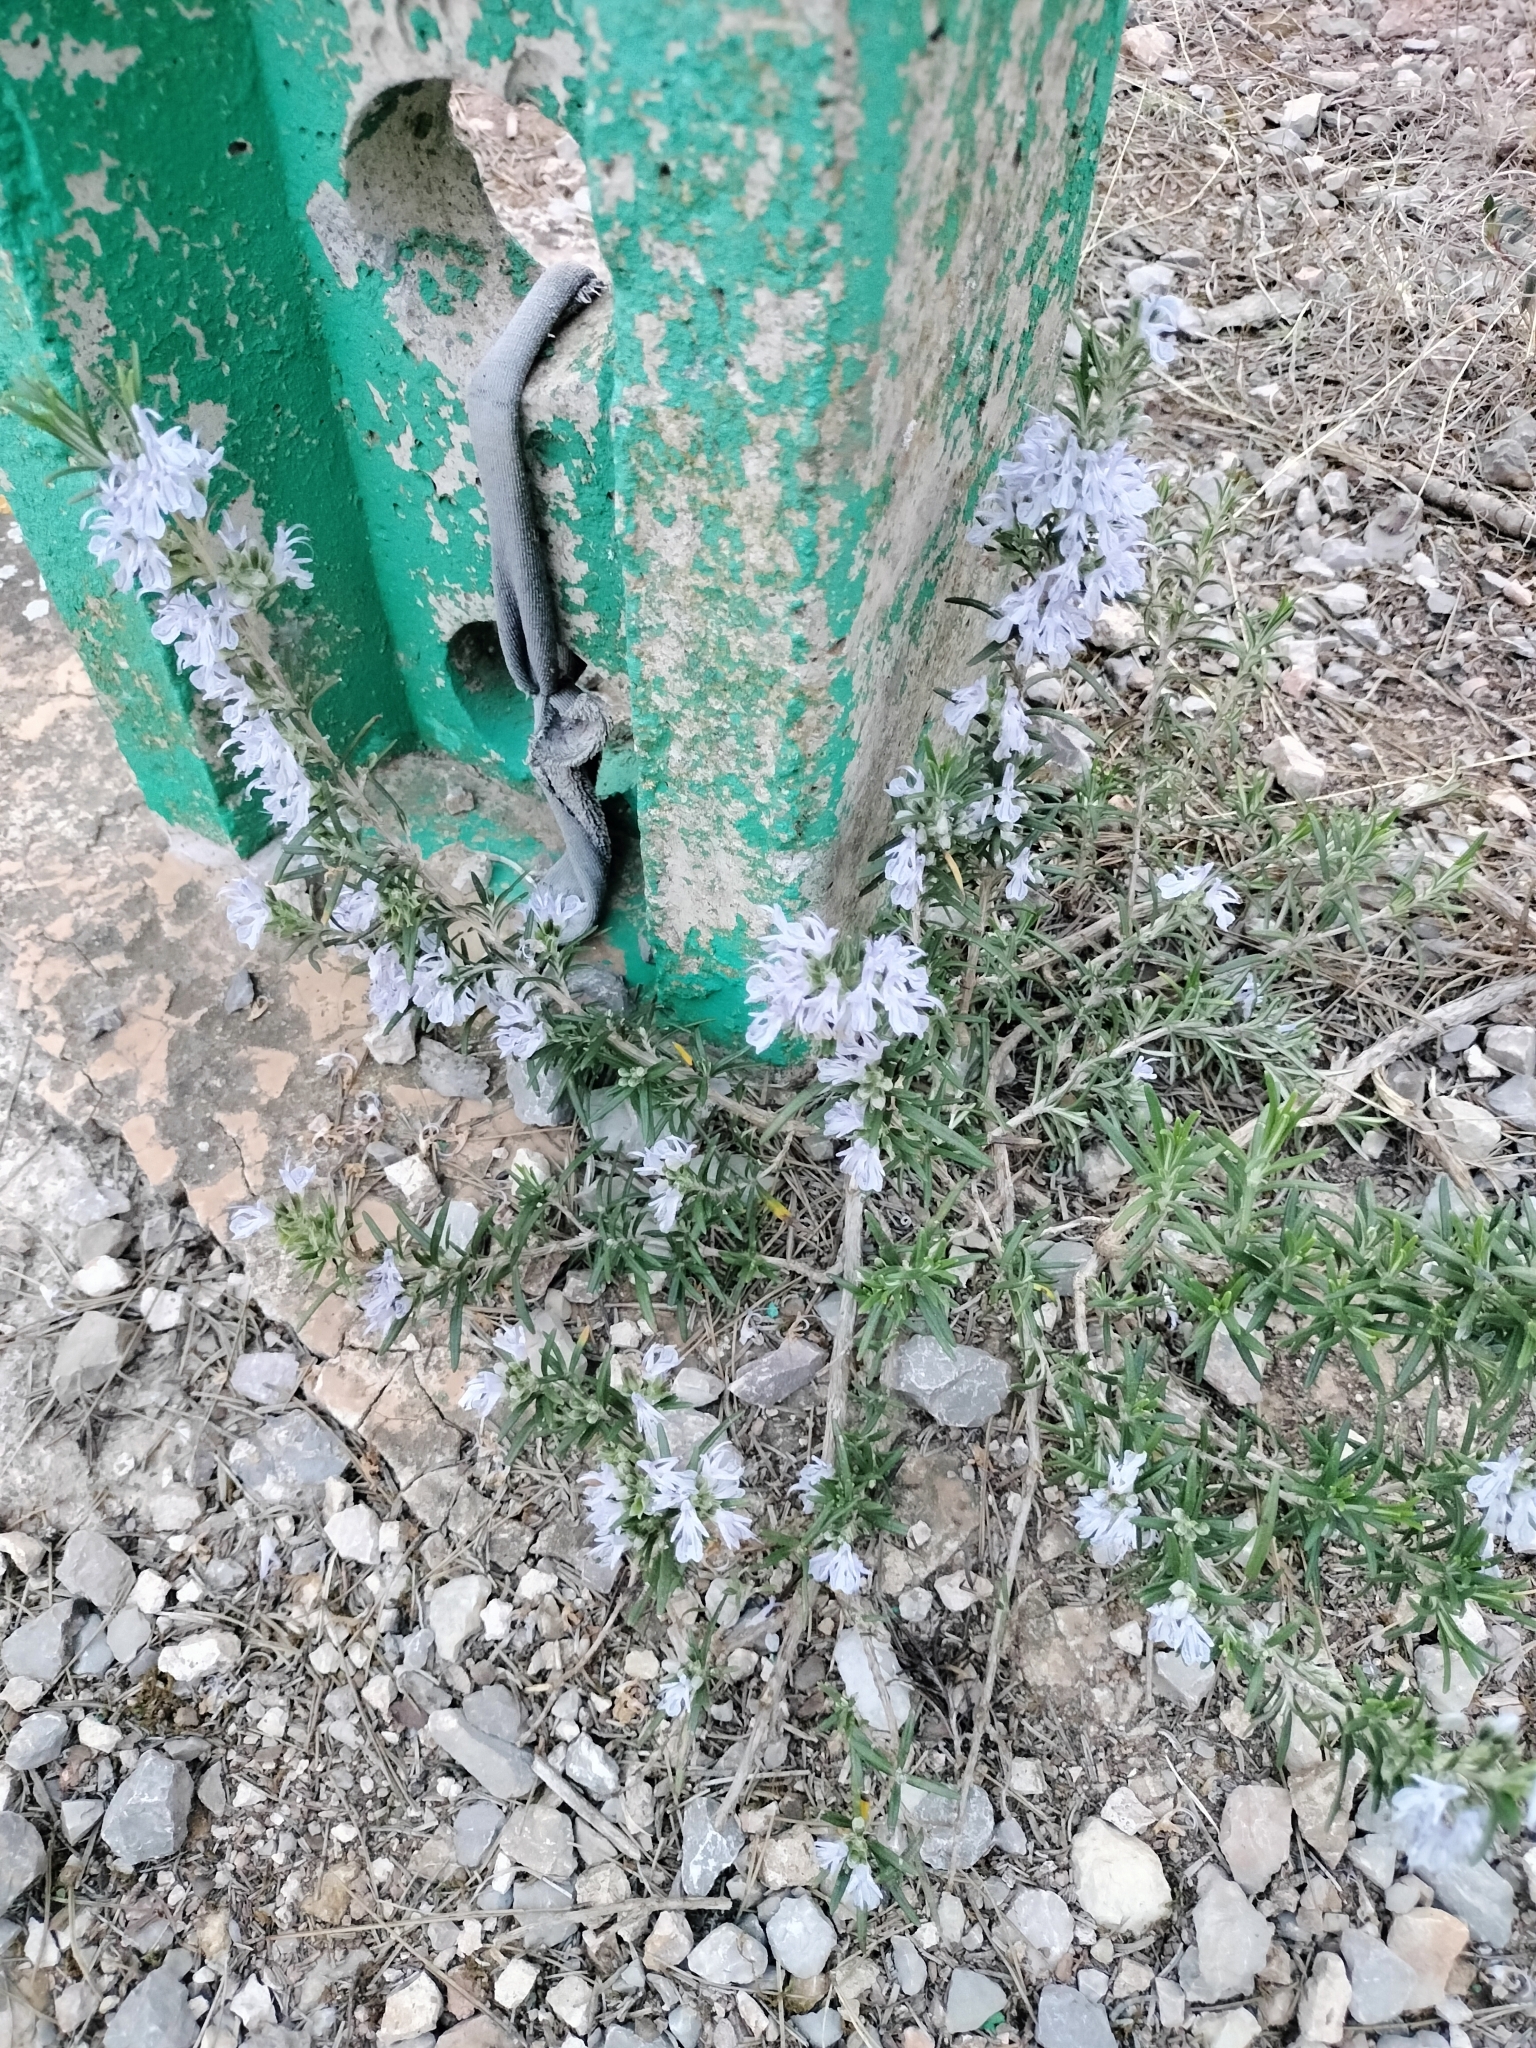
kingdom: Plantae
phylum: Tracheophyta
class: Magnoliopsida
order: Lamiales
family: Lamiaceae
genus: Salvia
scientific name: Salvia rosmarinus
